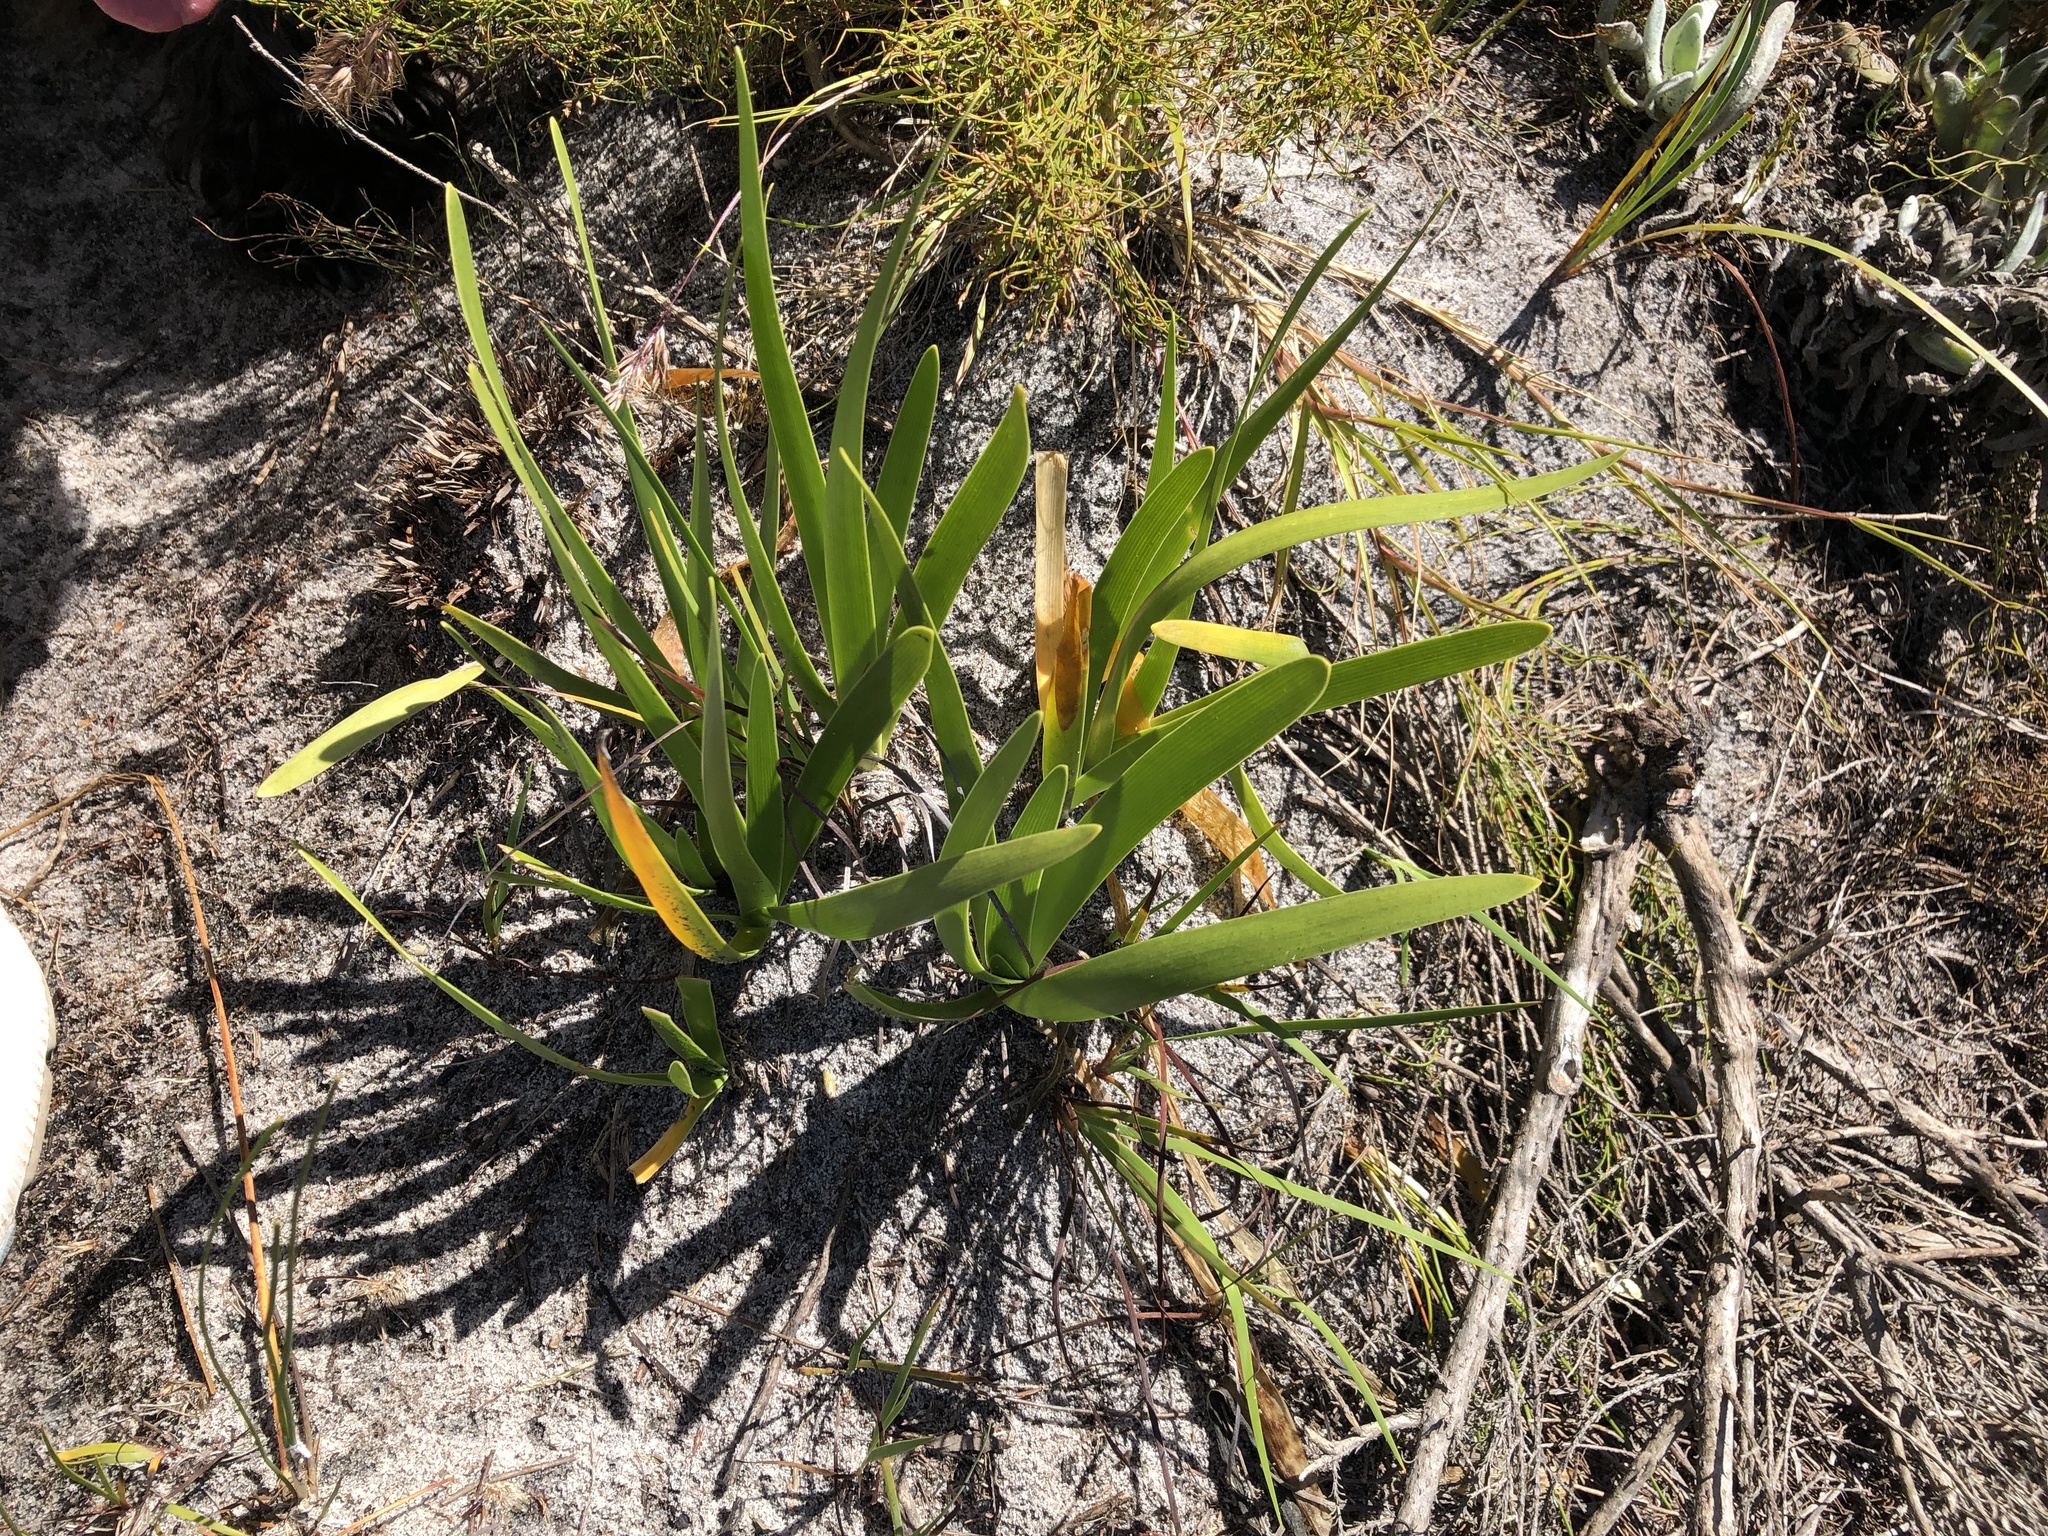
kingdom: Plantae
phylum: Tracheophyta
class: Liliopsida
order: Asparagales
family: Amaryllidaceae
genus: Agapanthus
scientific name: Agapanthus africanus
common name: Lily-of-the-nile
